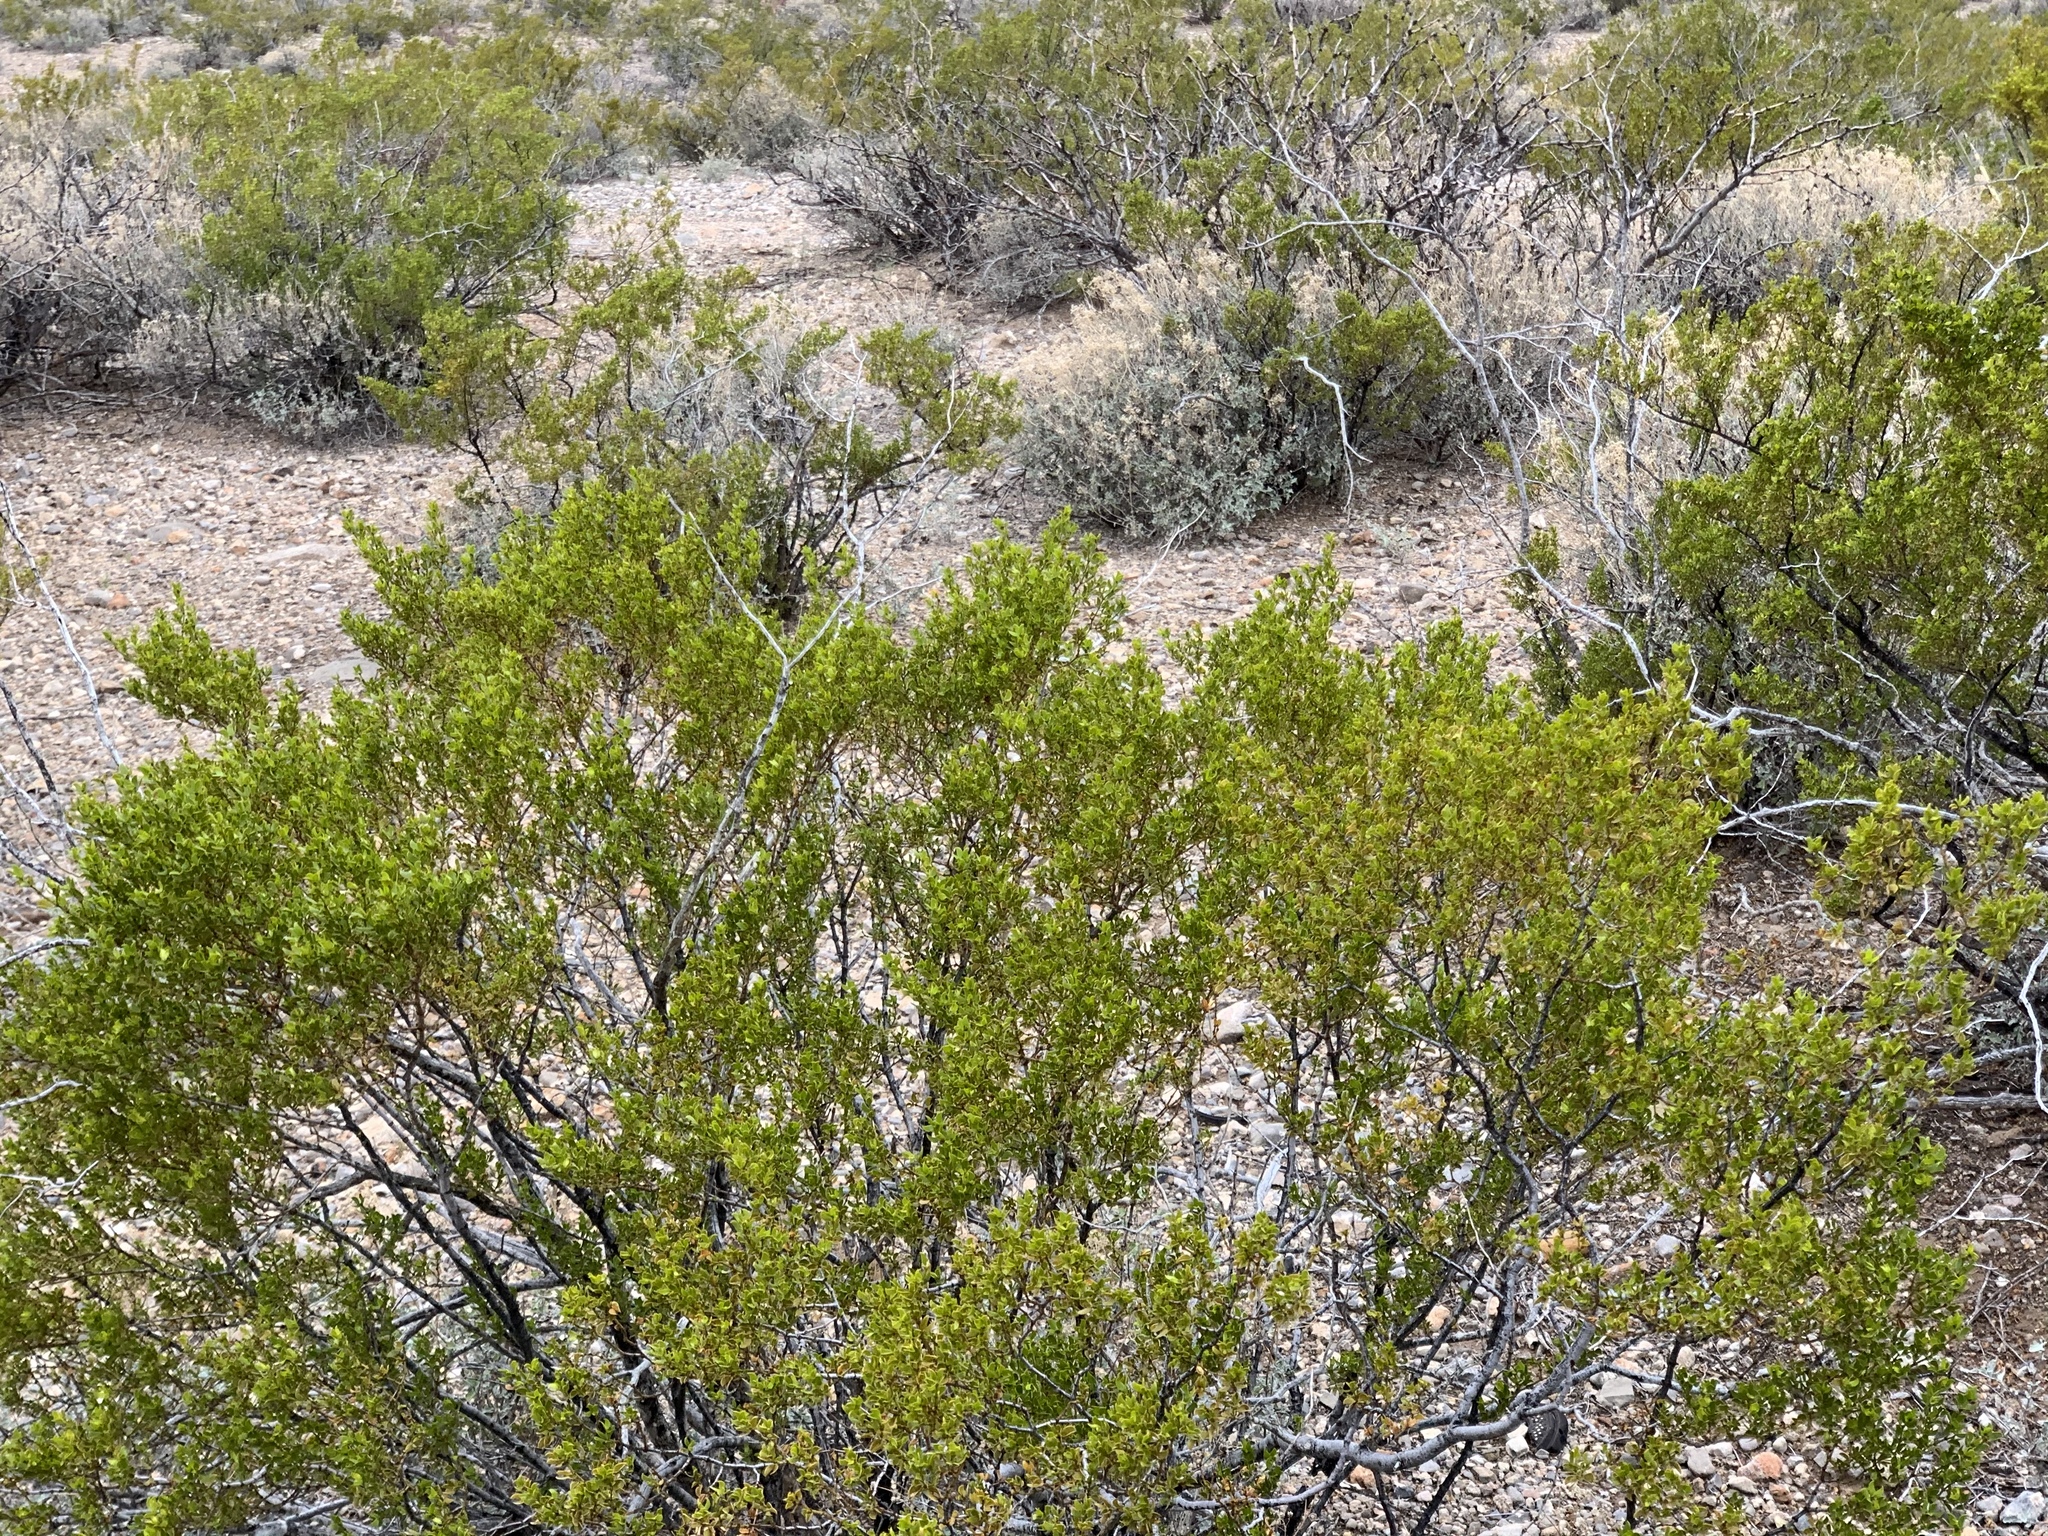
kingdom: Plantae
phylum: Tracheophyta
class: Magnoliopsida
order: Zygophyllales
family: Zygophyllaceae
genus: Larrea
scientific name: Larrea tridentata
